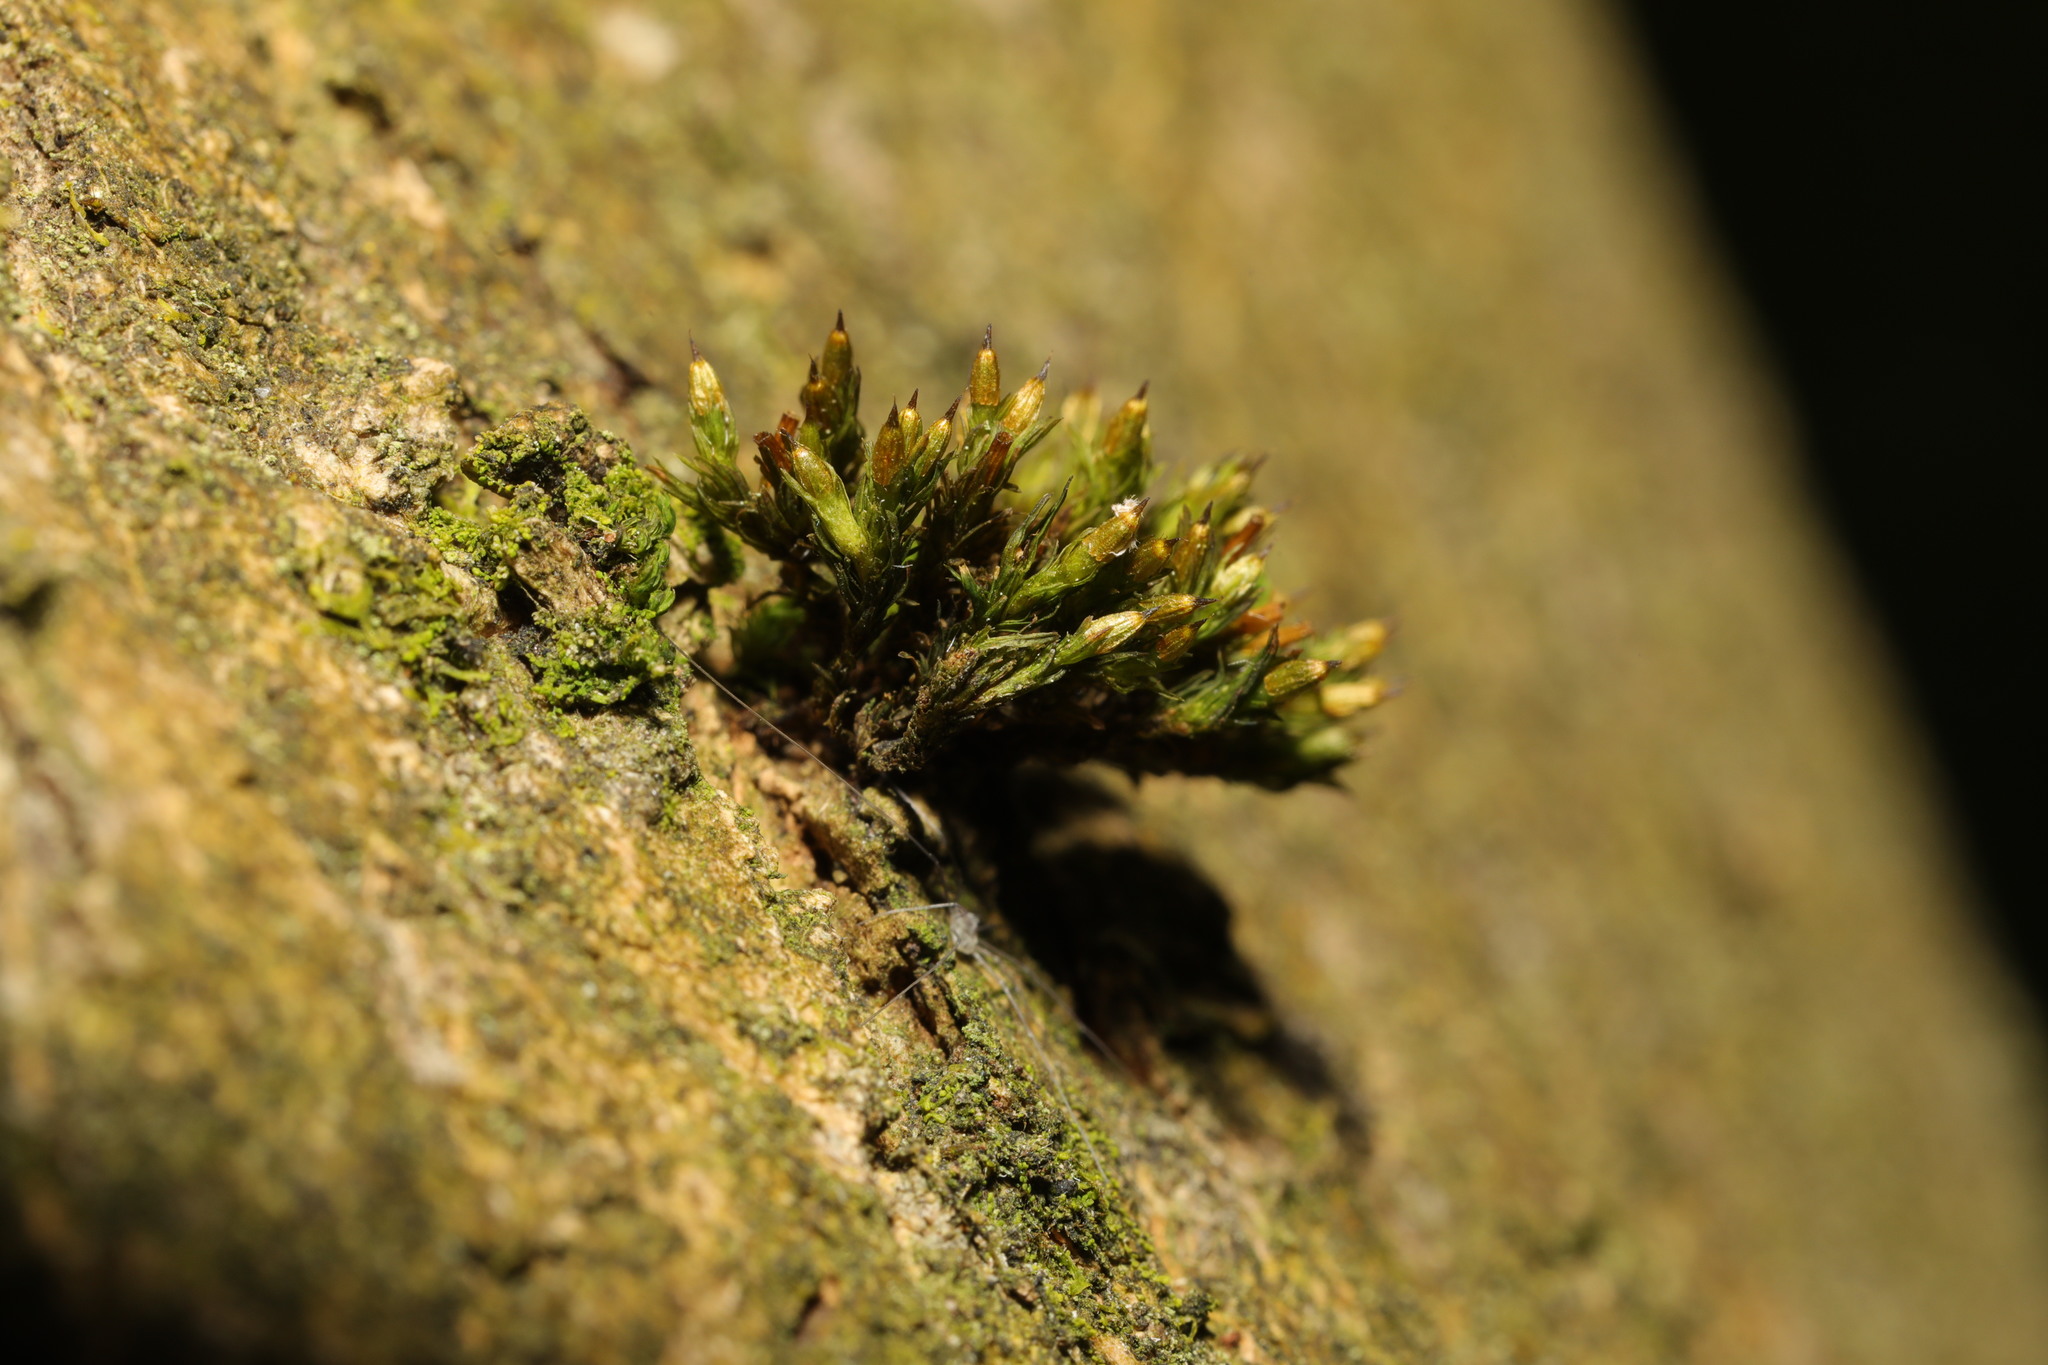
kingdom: Plantae
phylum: Bryophyta
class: Bryopsida
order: Orthotrichales
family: Orthotrichaceae
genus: Orthotrichum
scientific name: Orthotrichum stramineum
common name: Straw bristle-moss
